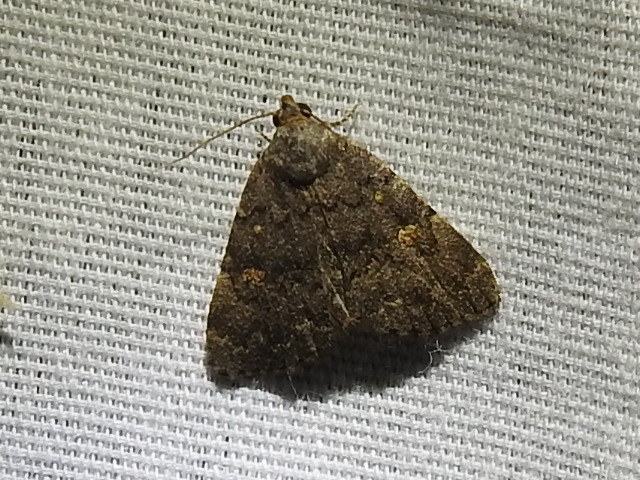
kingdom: Animalia
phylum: Arthropoda
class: Insecta
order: Lepidoptera
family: Erebidae
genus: Idia
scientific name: Idia aemula
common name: Common idia moth
